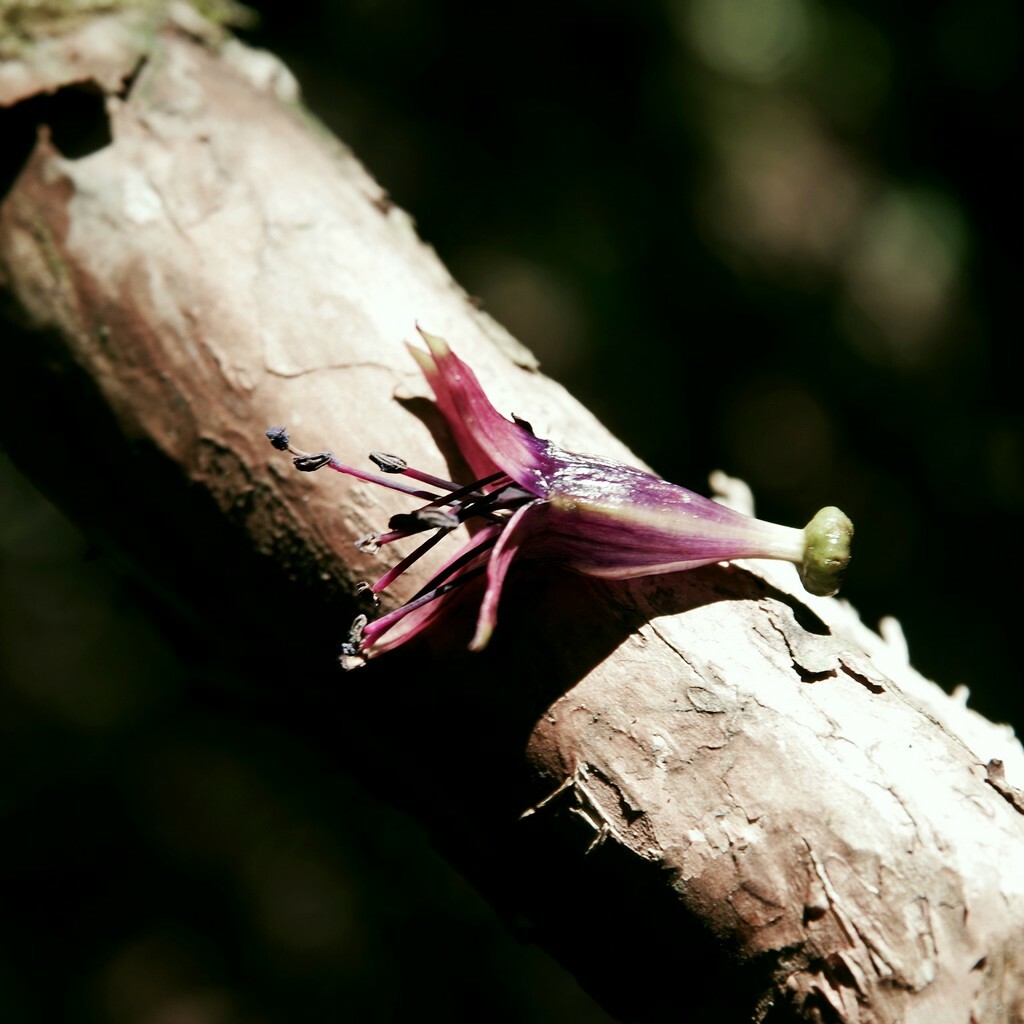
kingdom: Plantae
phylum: Tracheophyta
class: Magnoliopsida
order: Myrtales
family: Onagraceae
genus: Fuchsia
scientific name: Fuchsia excorticata
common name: Tree fuchsia
